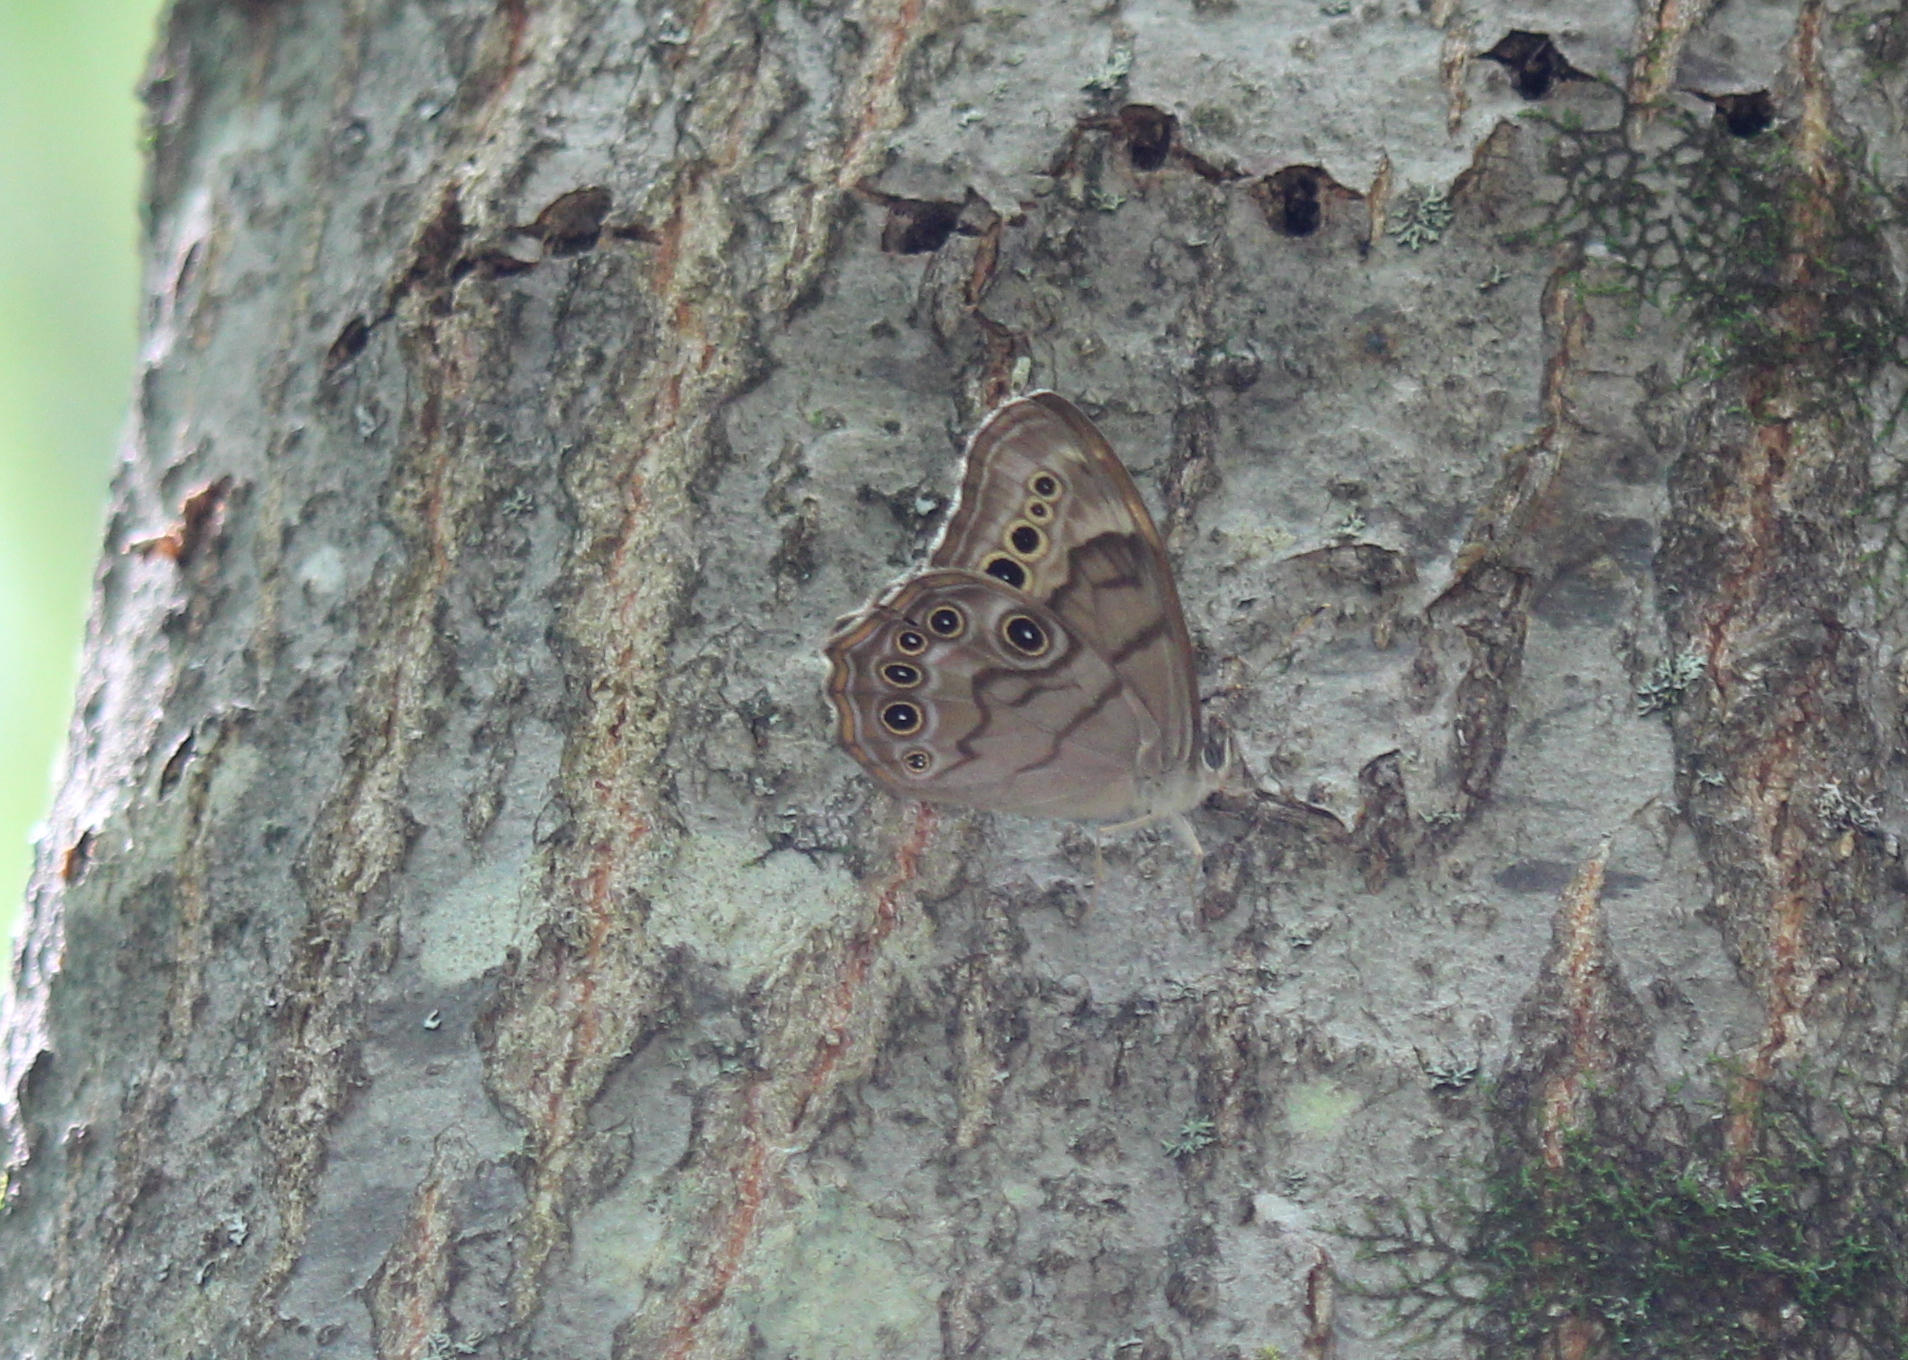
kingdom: Animalia
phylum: Arthropoda
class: Insecta
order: Lepidoptera
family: Nymphalidae
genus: Lethe
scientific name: Lethe anthedon
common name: Northern pearly-eye
